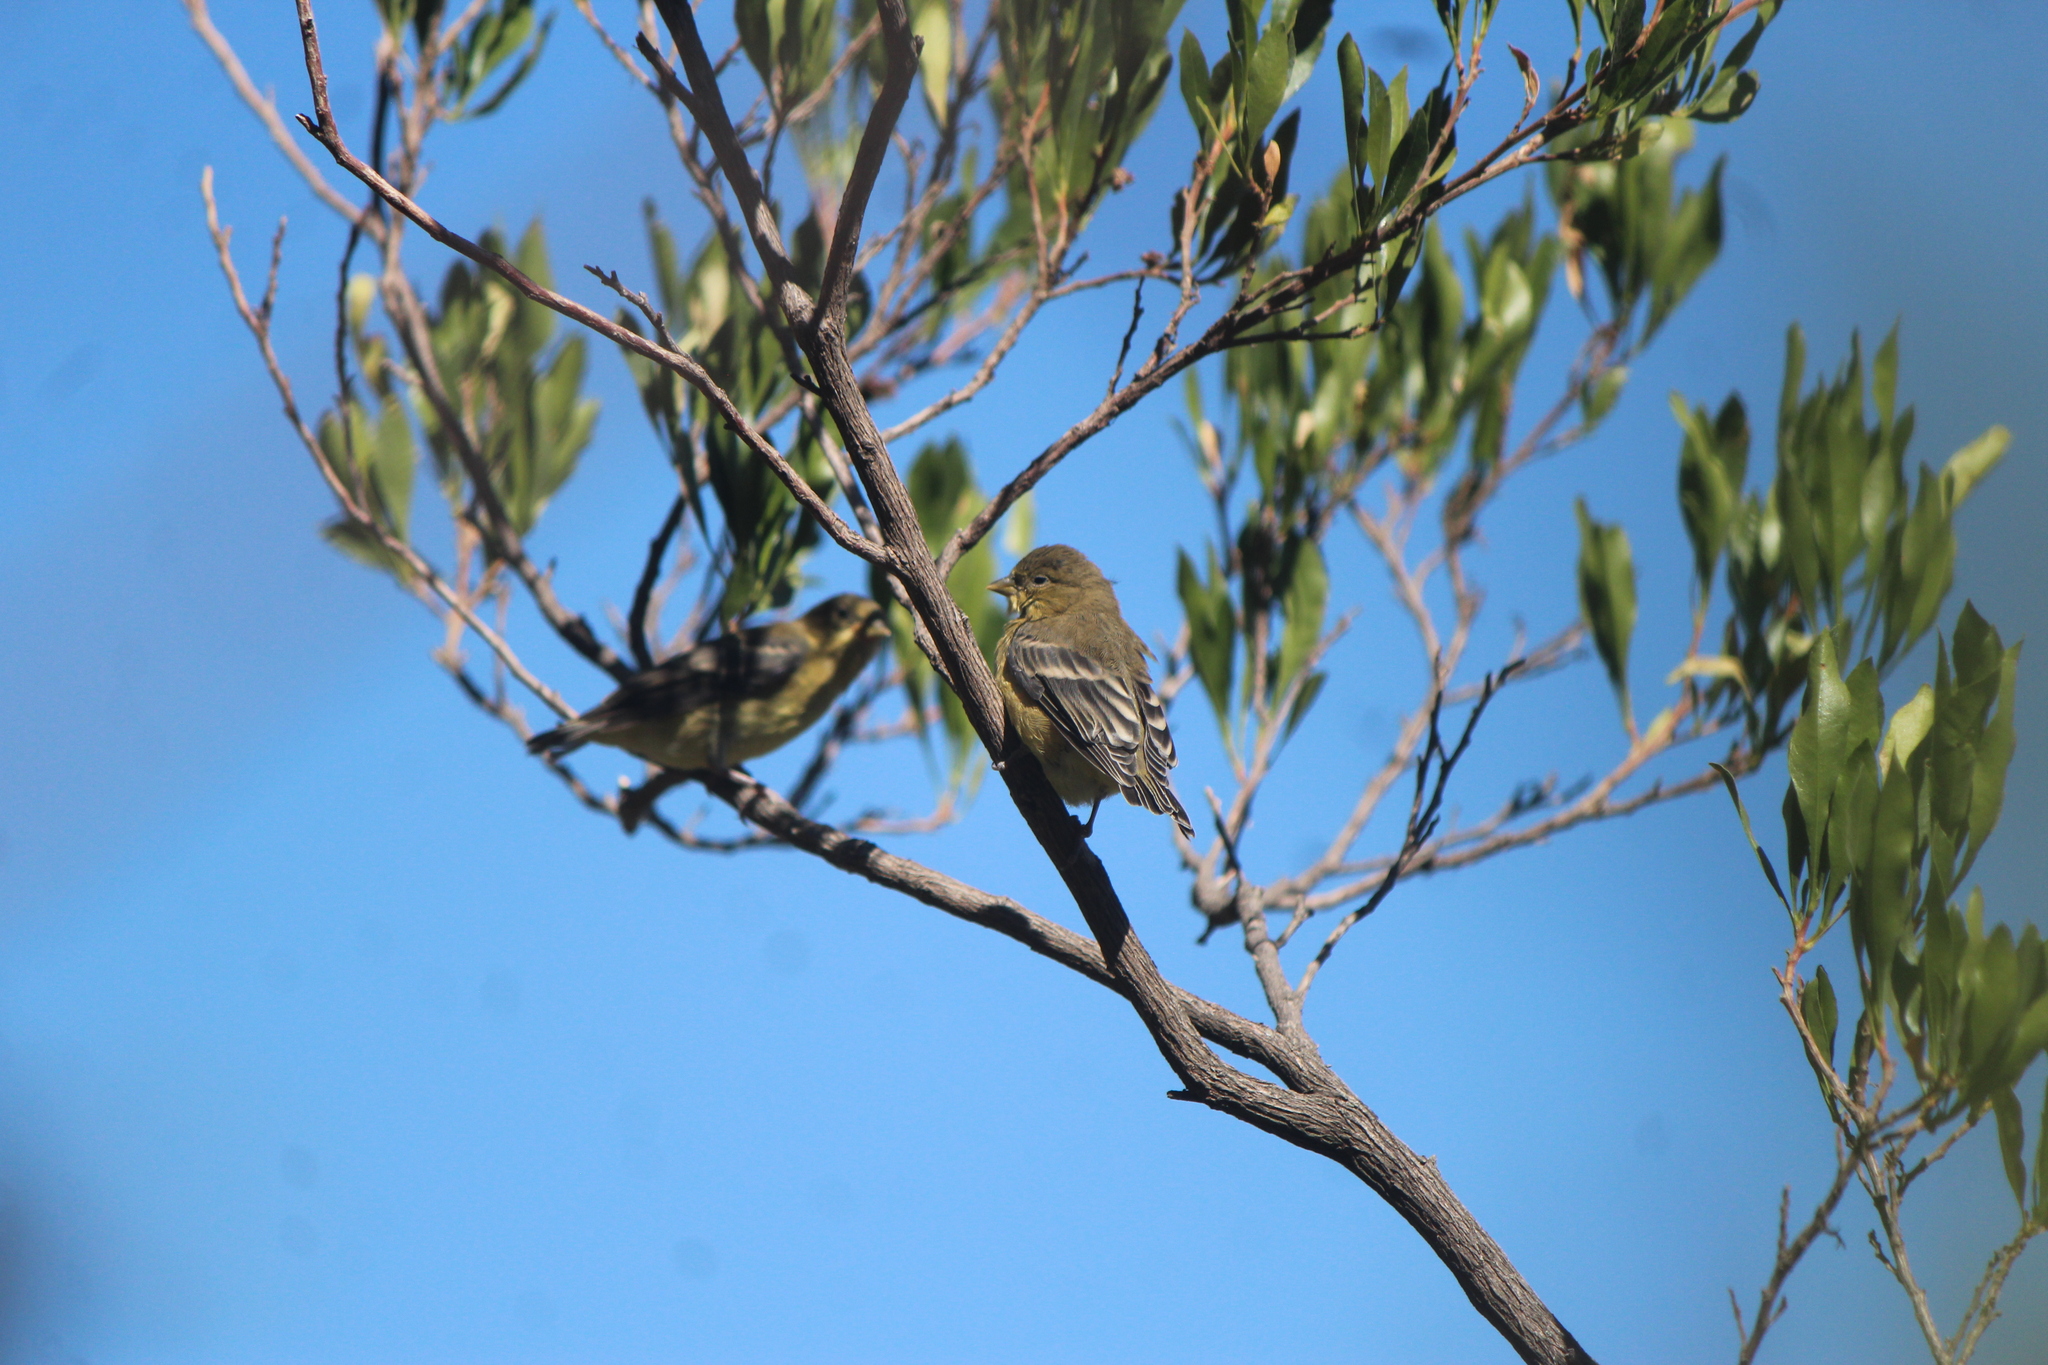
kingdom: Animalia
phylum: Chordata
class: Aves
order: Passeriformes
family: Fringillidae
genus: Spinus
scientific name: Spinus psaltria
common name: Lesser goldfinch
